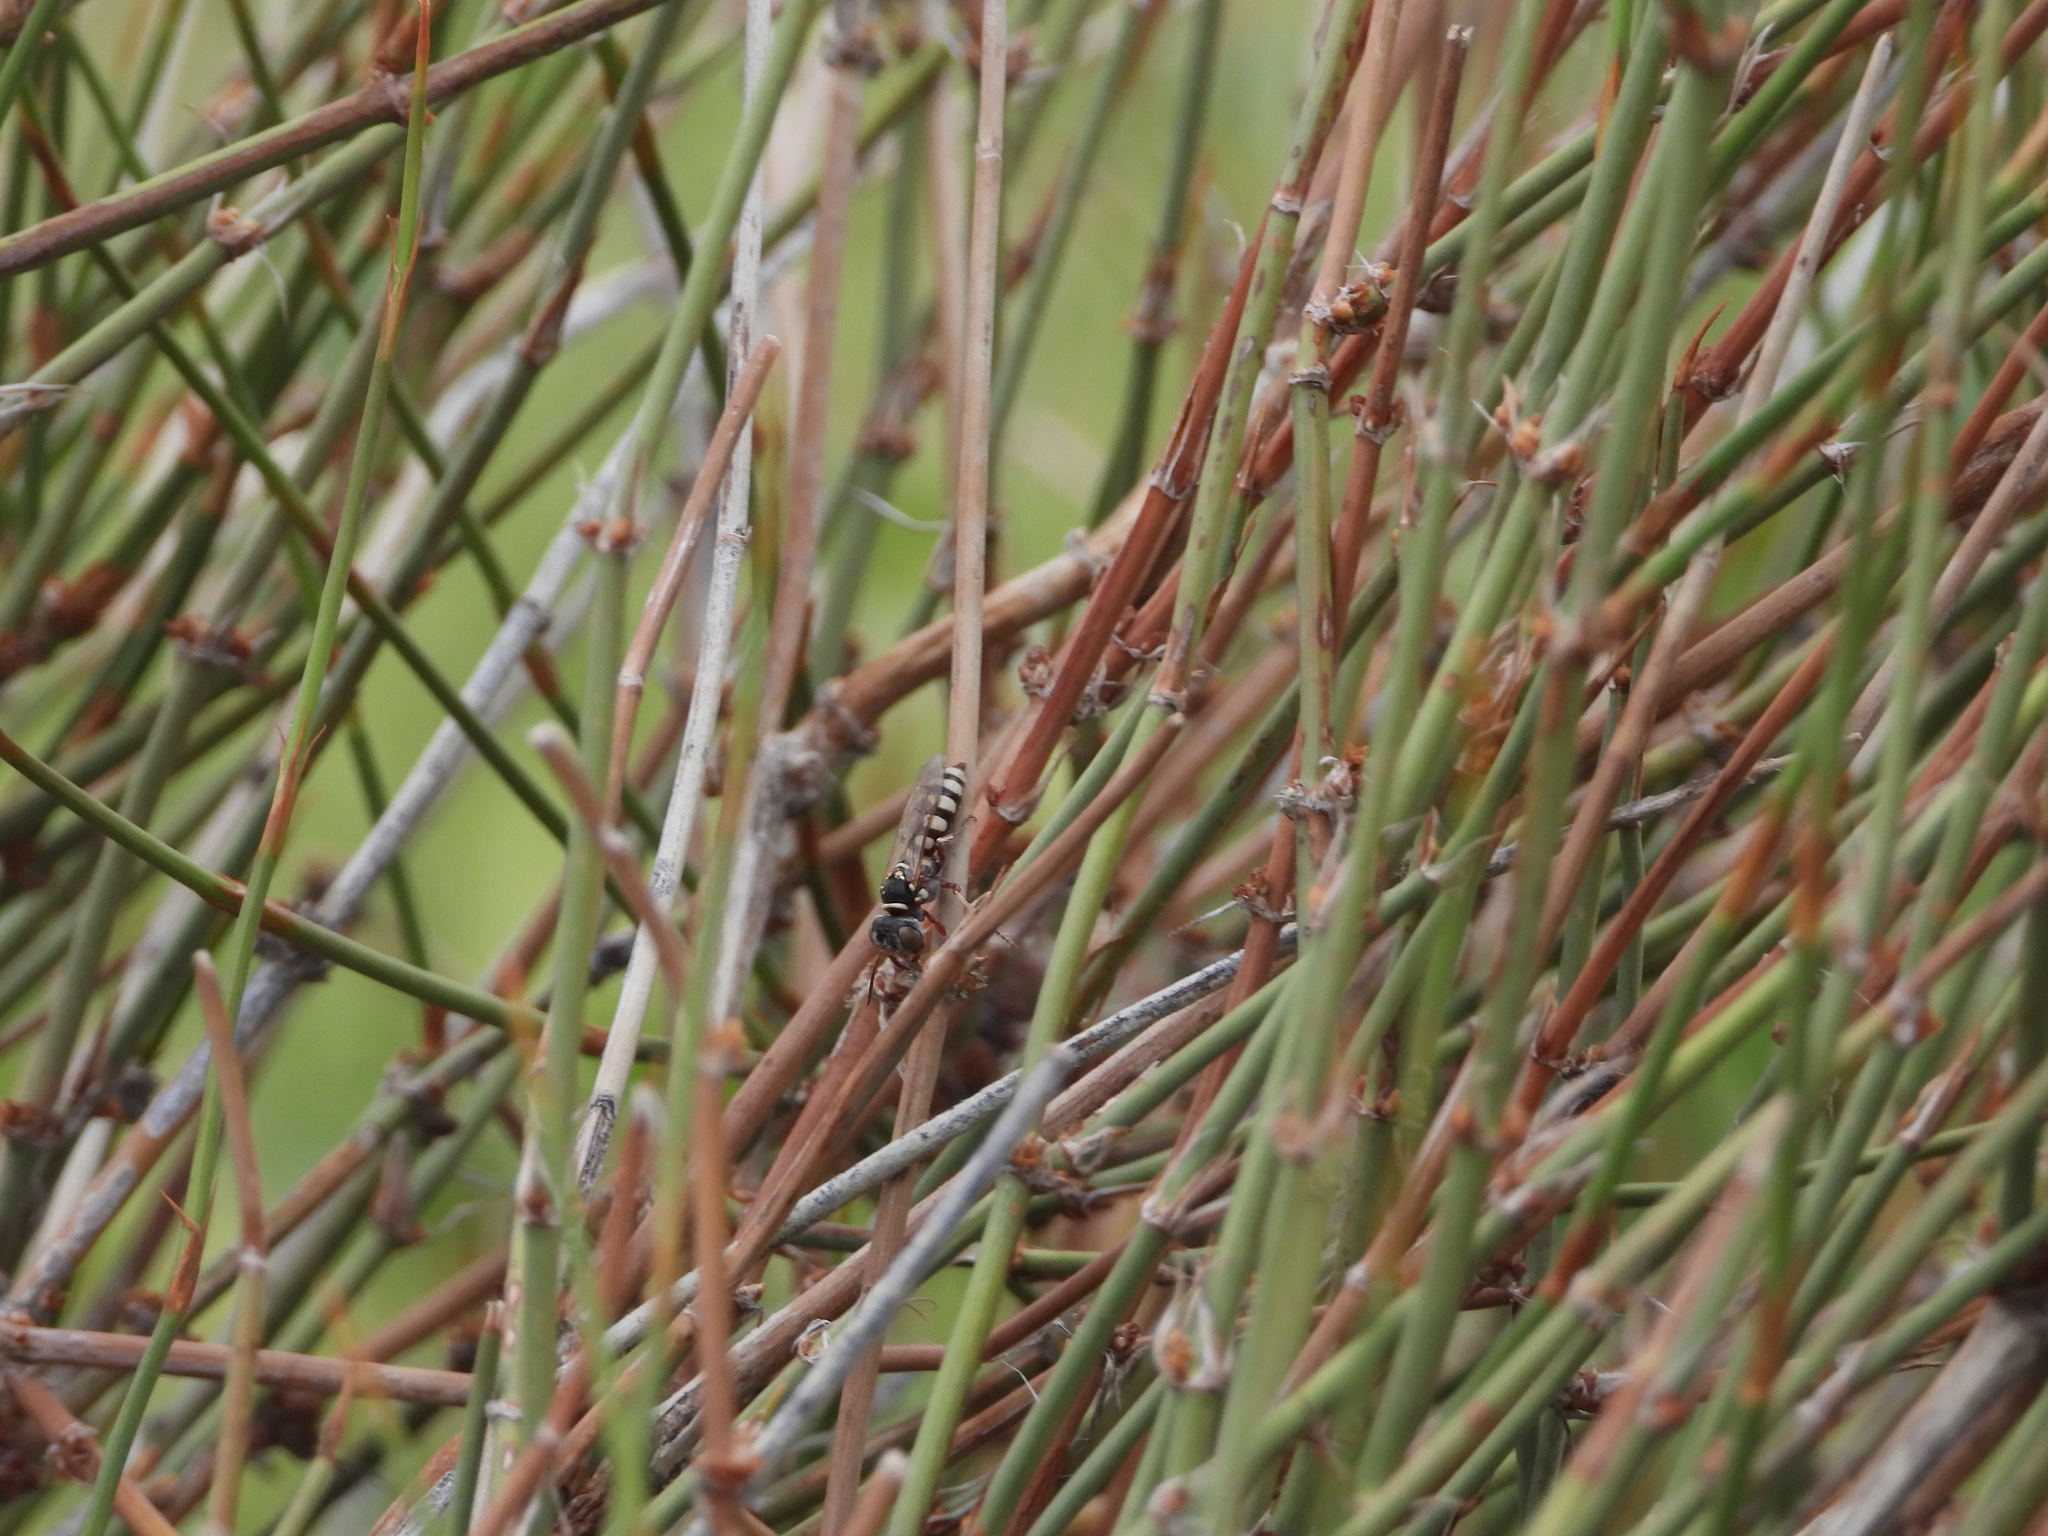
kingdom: Animalia
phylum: Arthropoda
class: Insecta
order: Hymenoptera
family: Crabronidae
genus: Clypeadon
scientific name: Clypeadon
